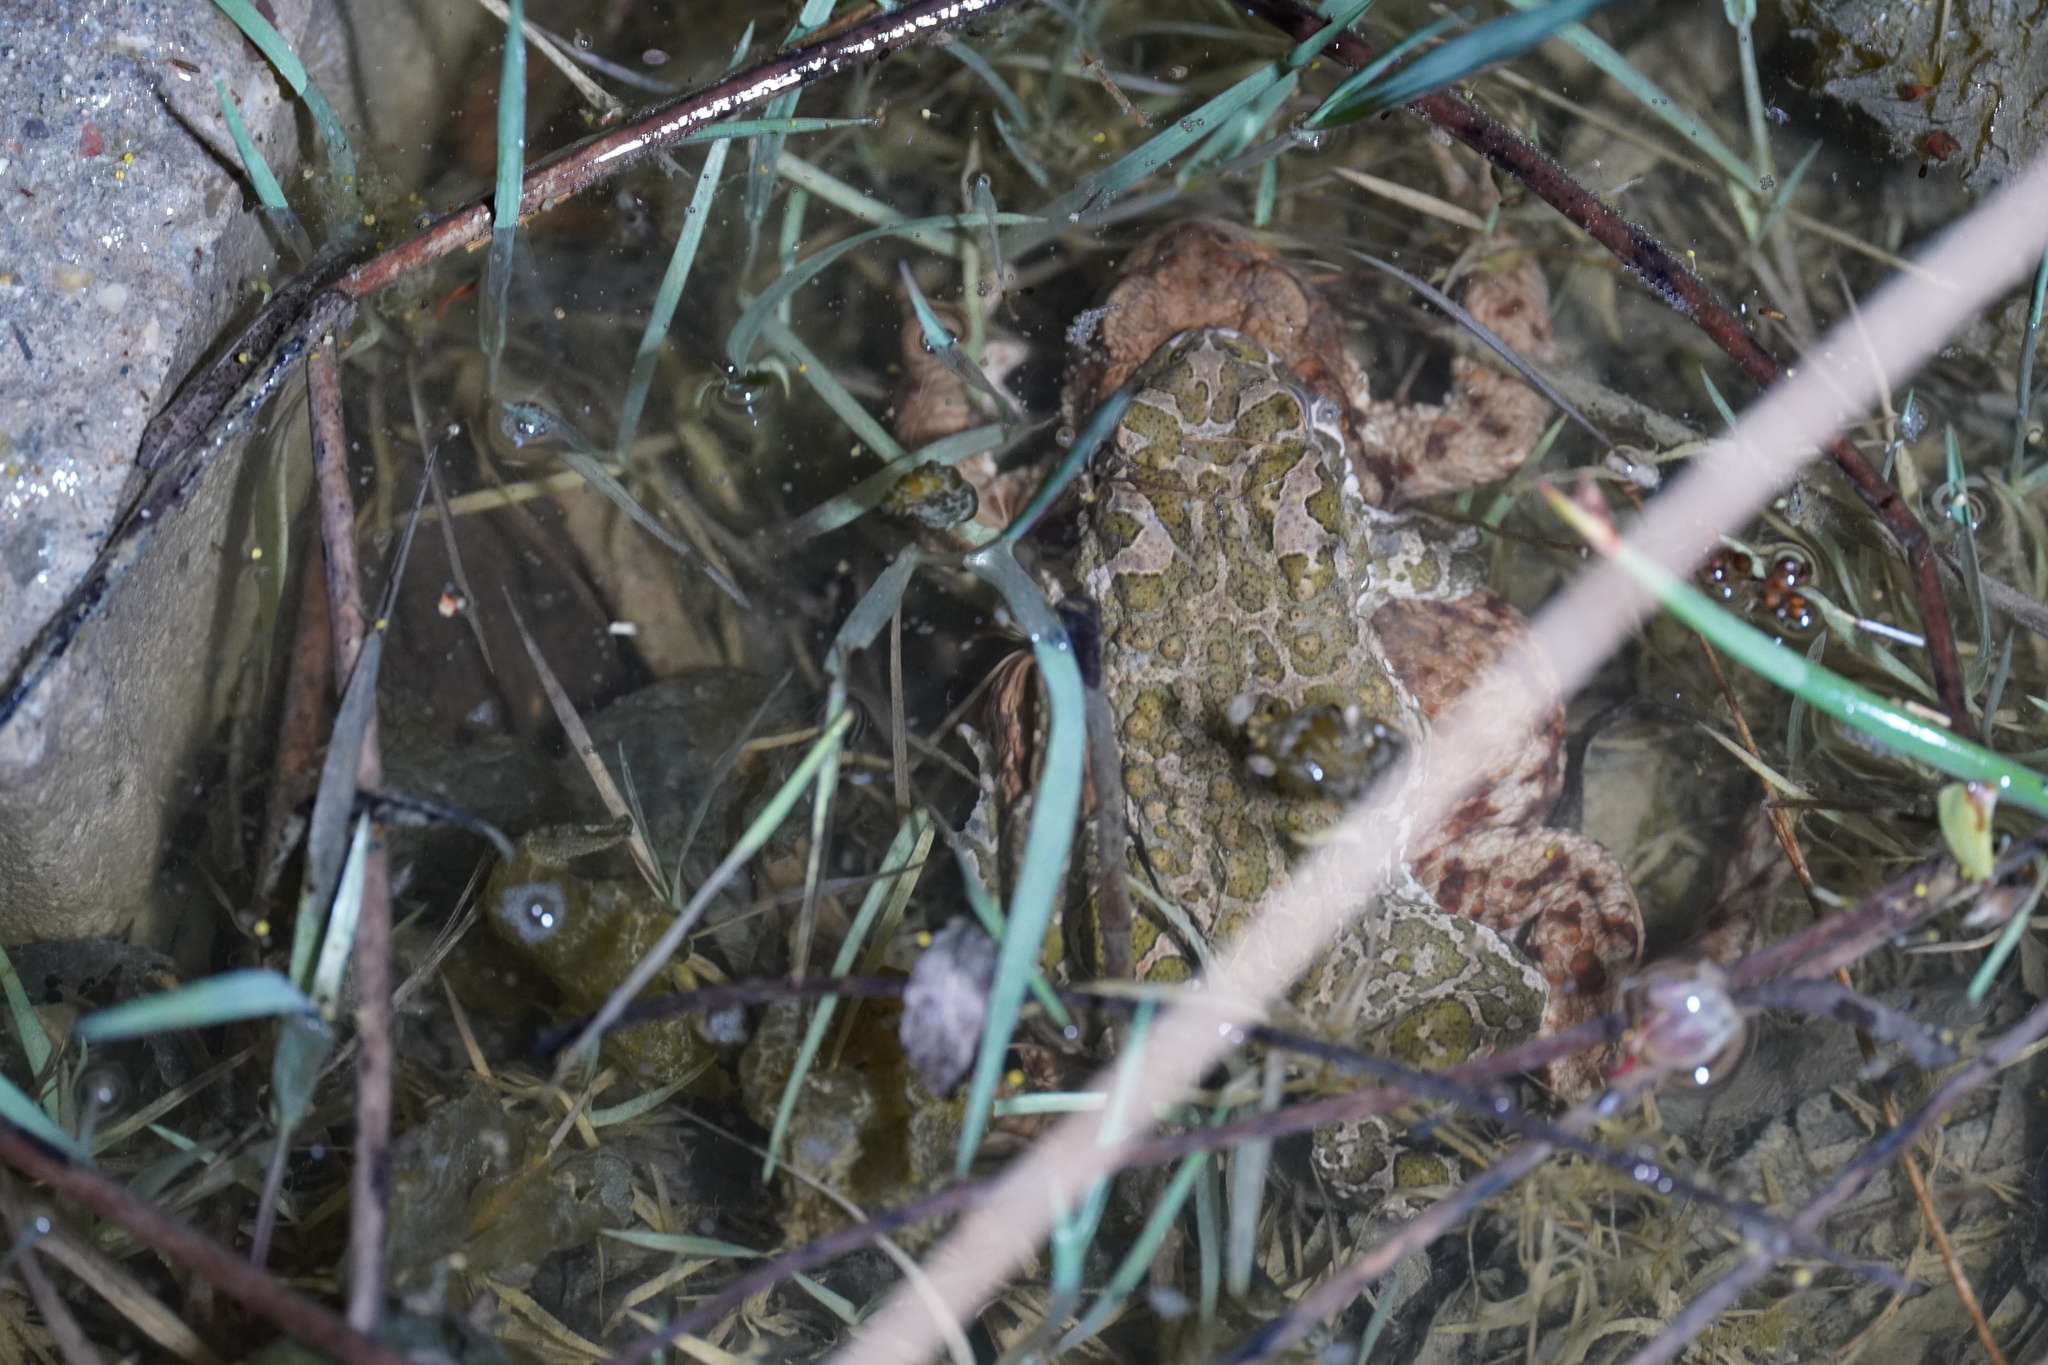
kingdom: Animalia
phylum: Chordata
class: Amphibia
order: Anura
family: Bufonidae
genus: Bufotes
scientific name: Bufotes viridis
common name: European green toad
